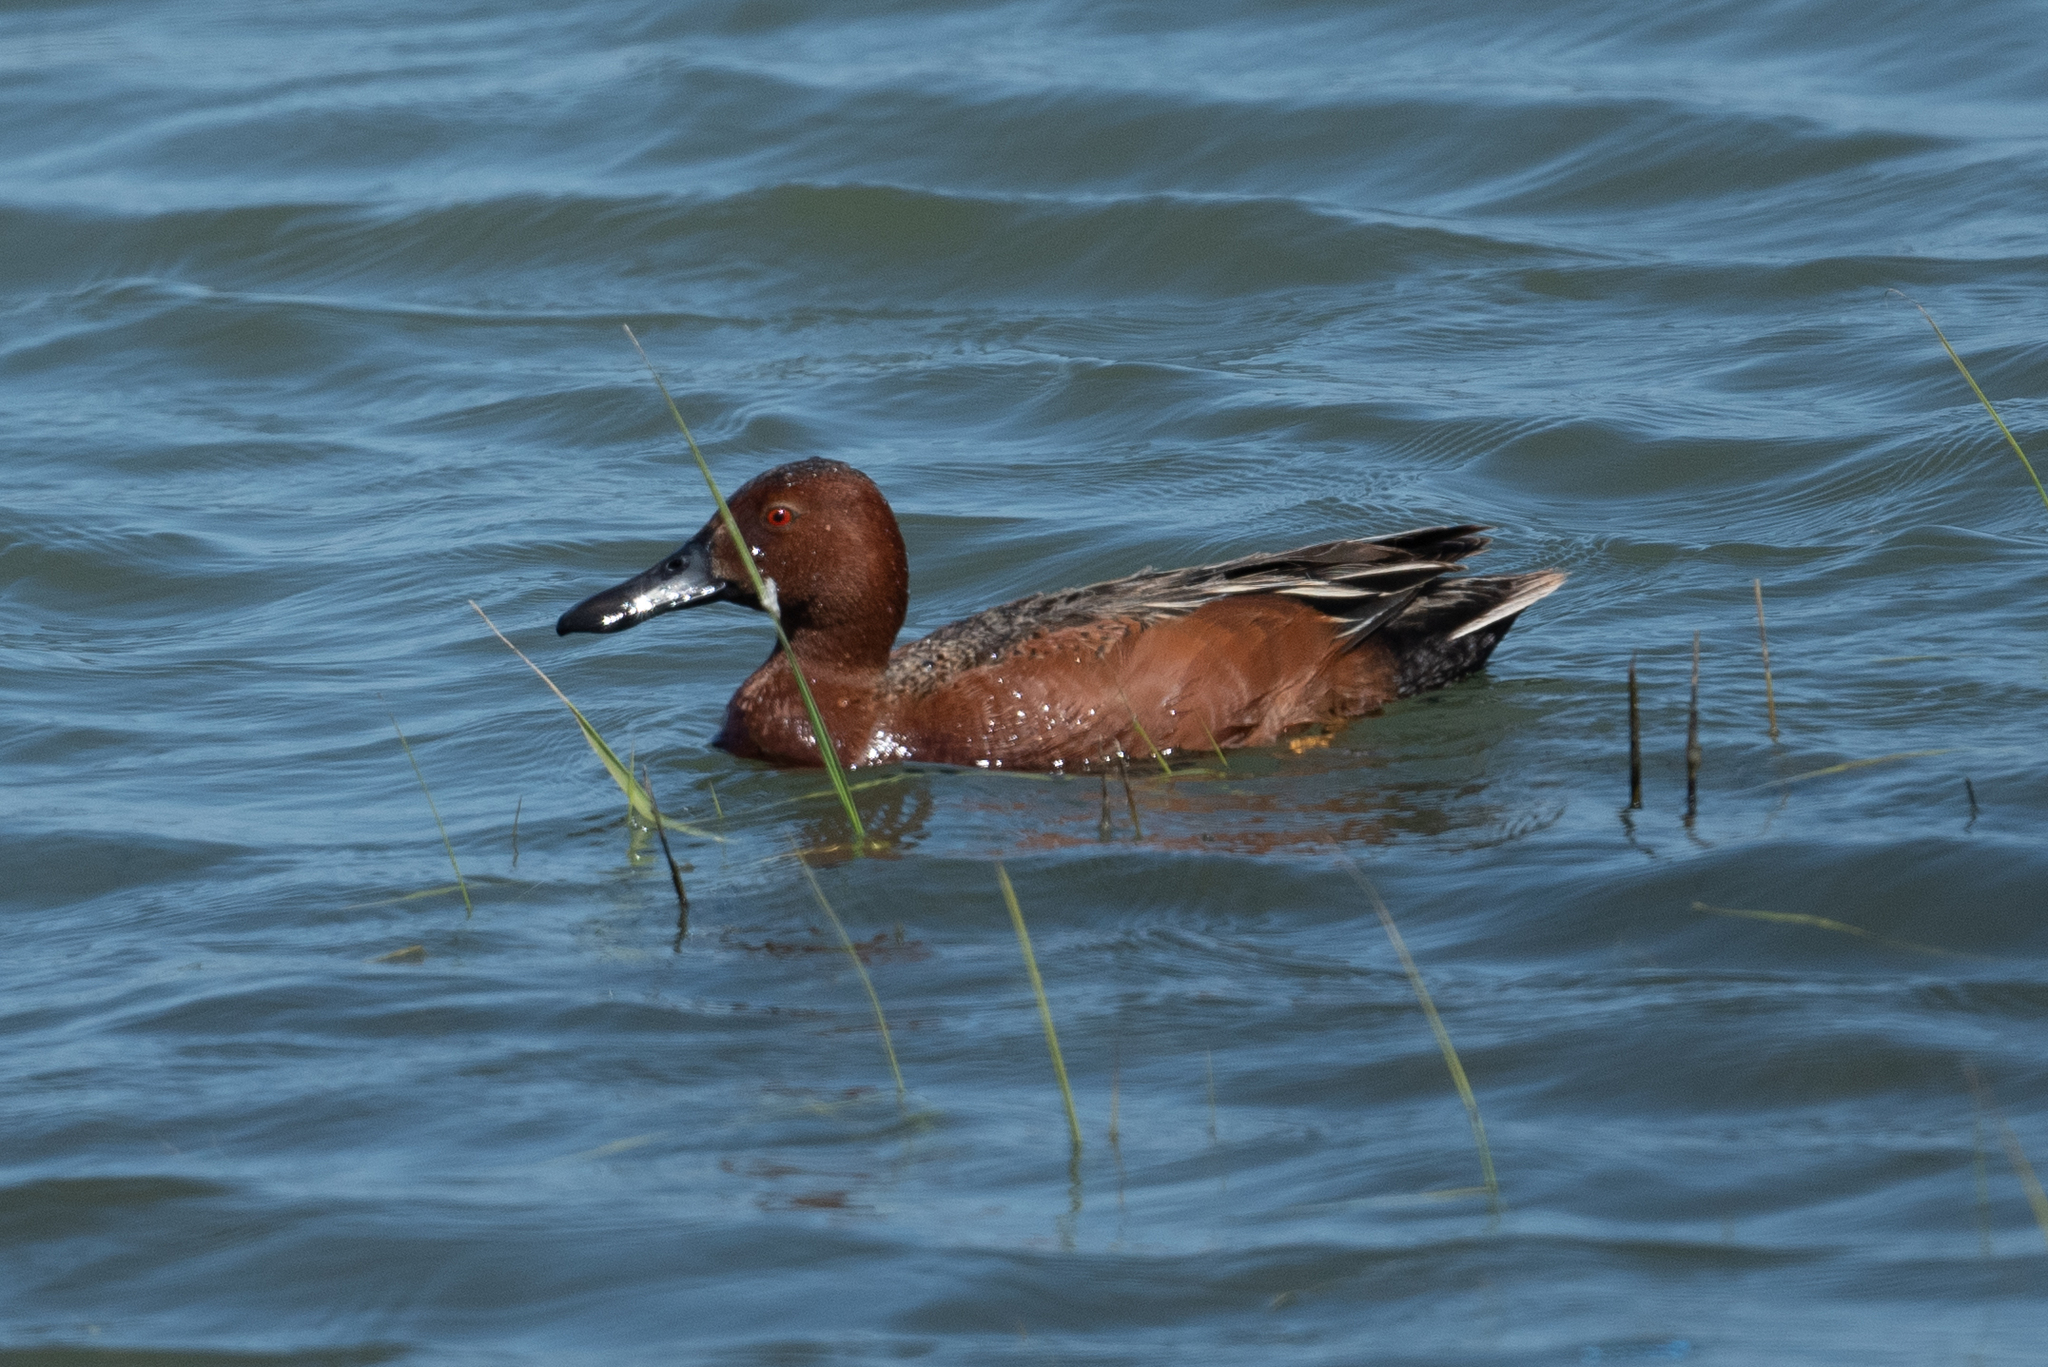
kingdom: Animalia
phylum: Chordata
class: Aves
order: Anseriformes
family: Anatidae
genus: Spatula
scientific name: Spatula cyanoptera
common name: Cinnamon teal
